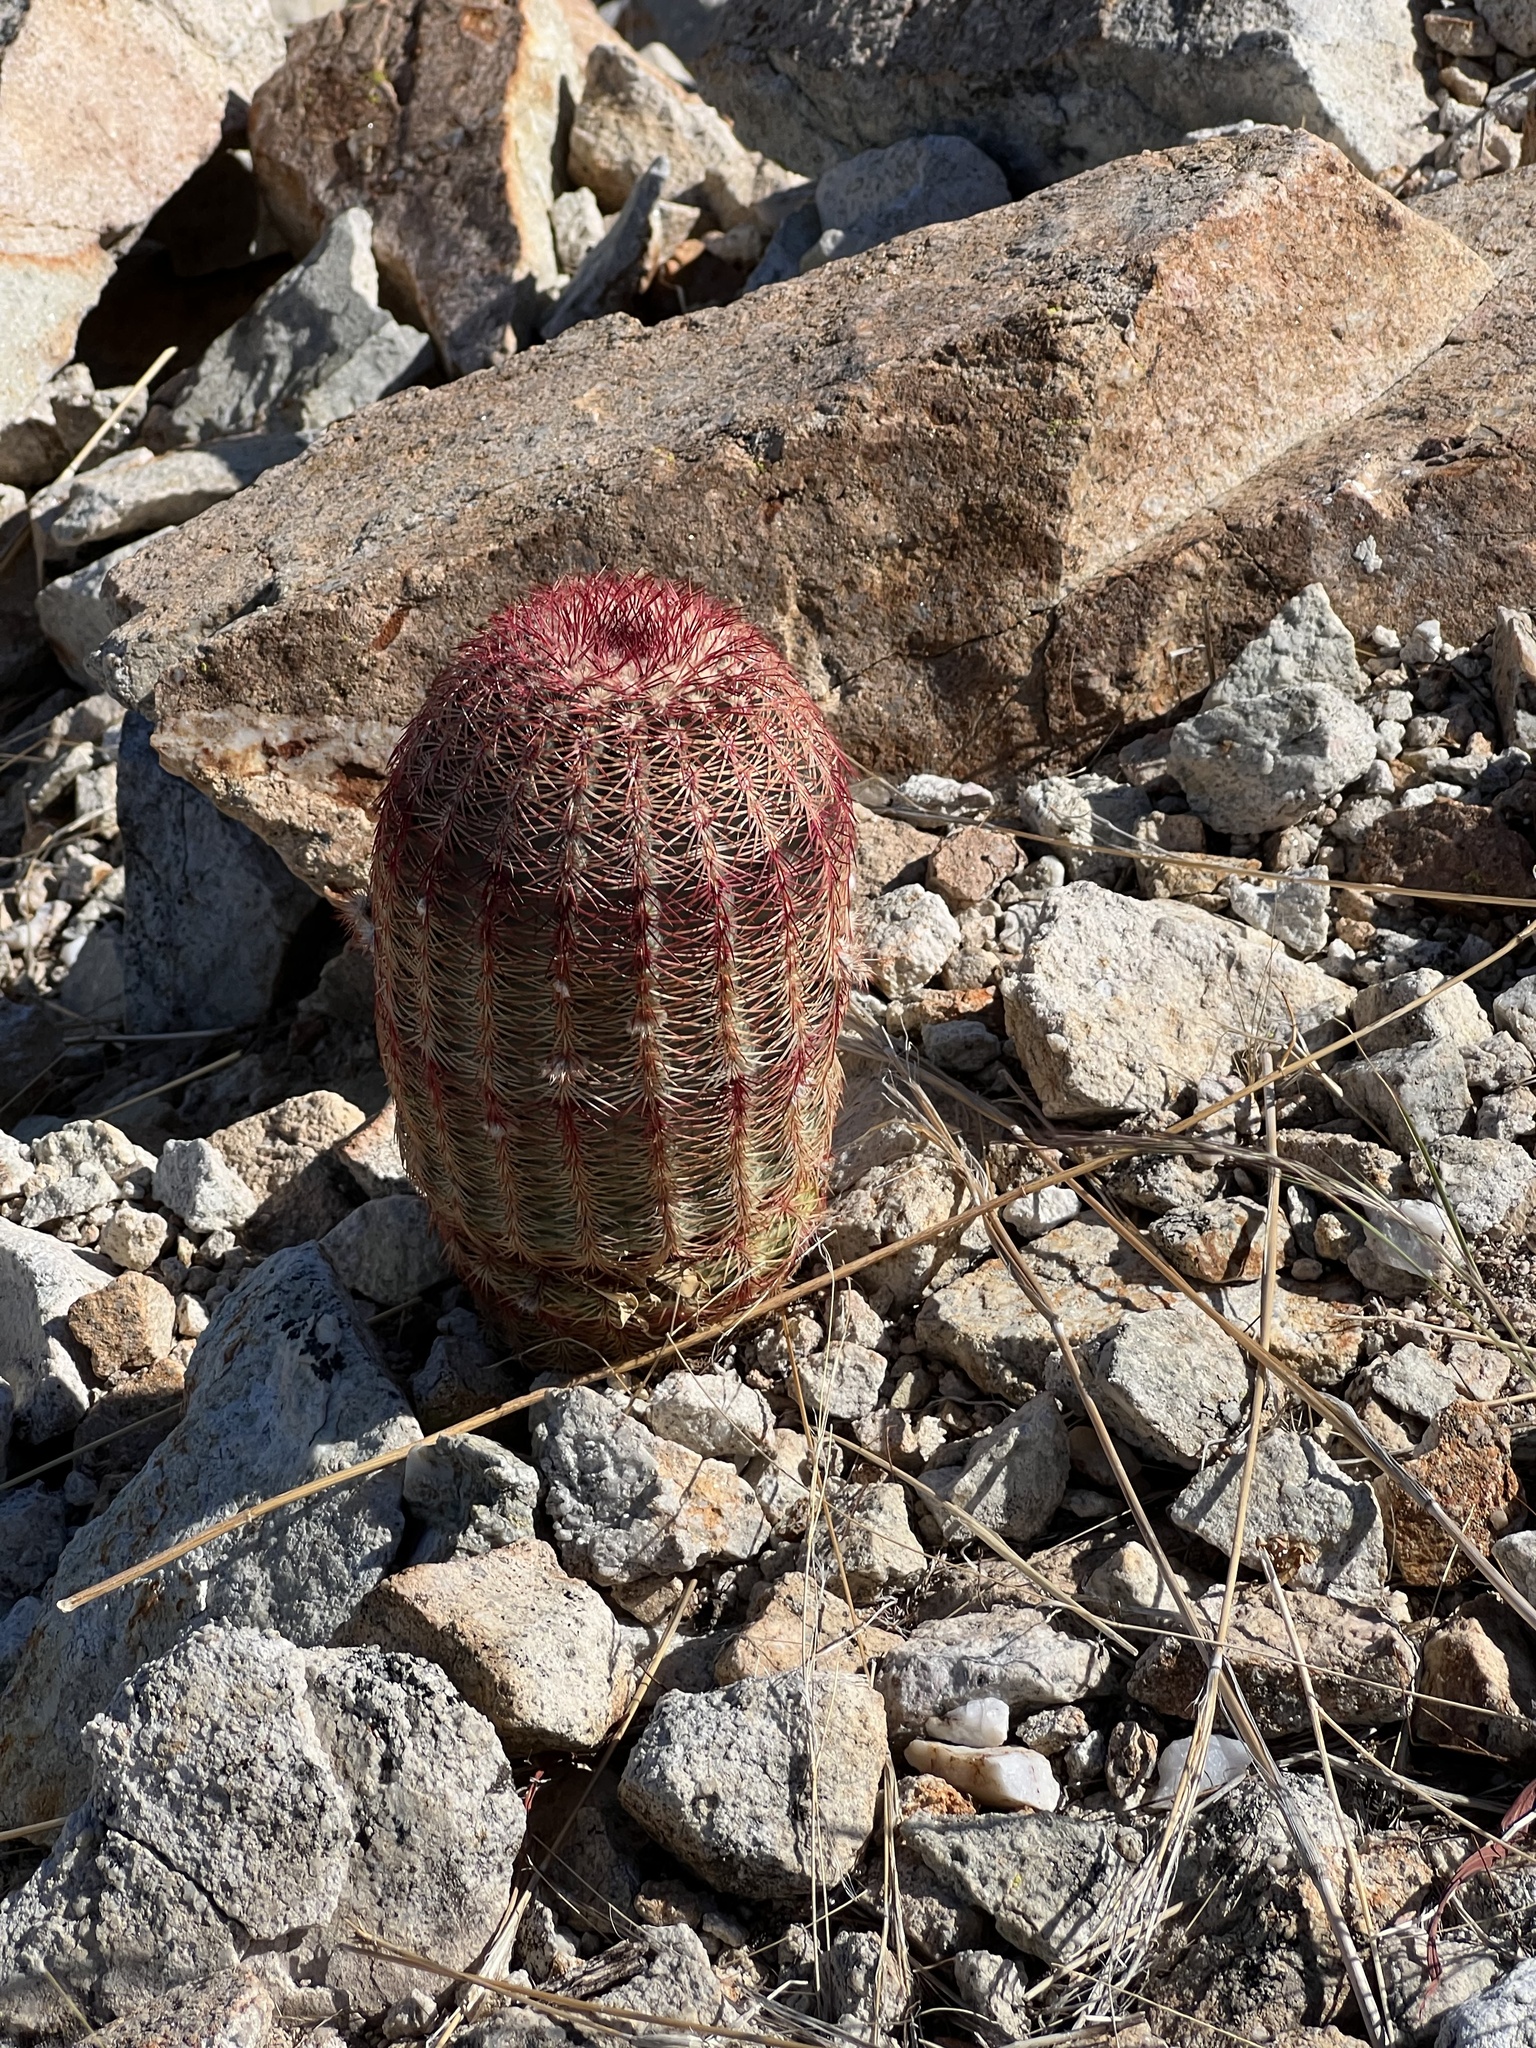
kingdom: Plantae
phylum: Tracheophyta
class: Magnoliopsida
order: Caryophyllales
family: Cactaceae
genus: Echinocereus
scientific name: Echinocereus rigidissimus
